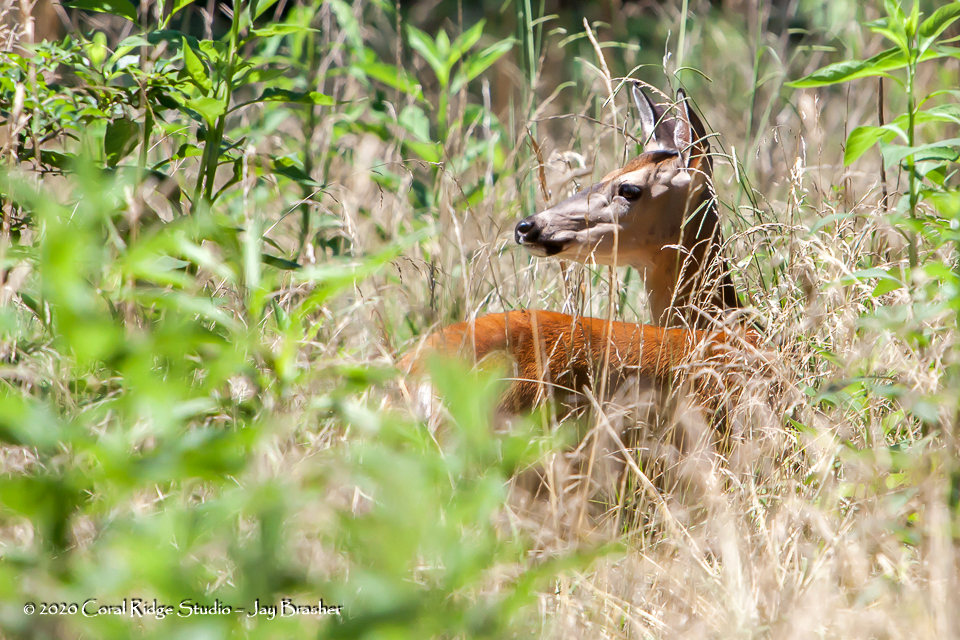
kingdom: Animalia
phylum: Chordata
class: Mammalia
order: Artiodactyla
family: Cervidae
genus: Odocoileus
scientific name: Odocoileus virginianus
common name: White-tailed deer
